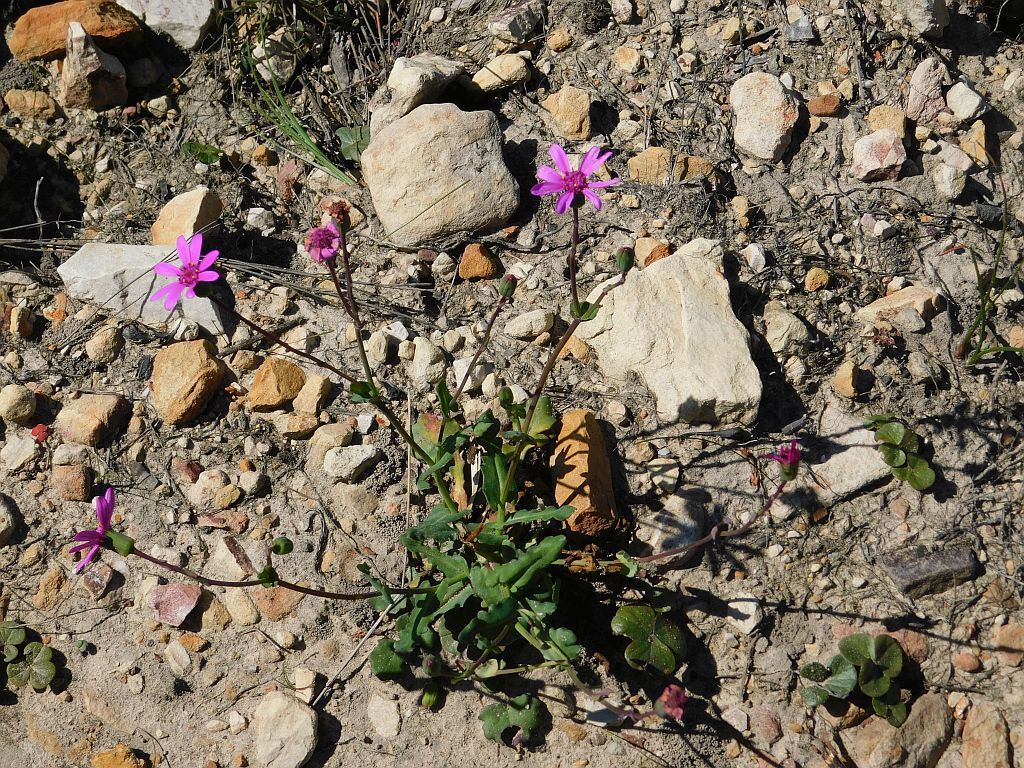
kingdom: Plantae
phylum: Tracheophyta
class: Magnoliopsida
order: Asterales
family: Asteraceae
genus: Senecio
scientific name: Senecio cymbalariifolius
